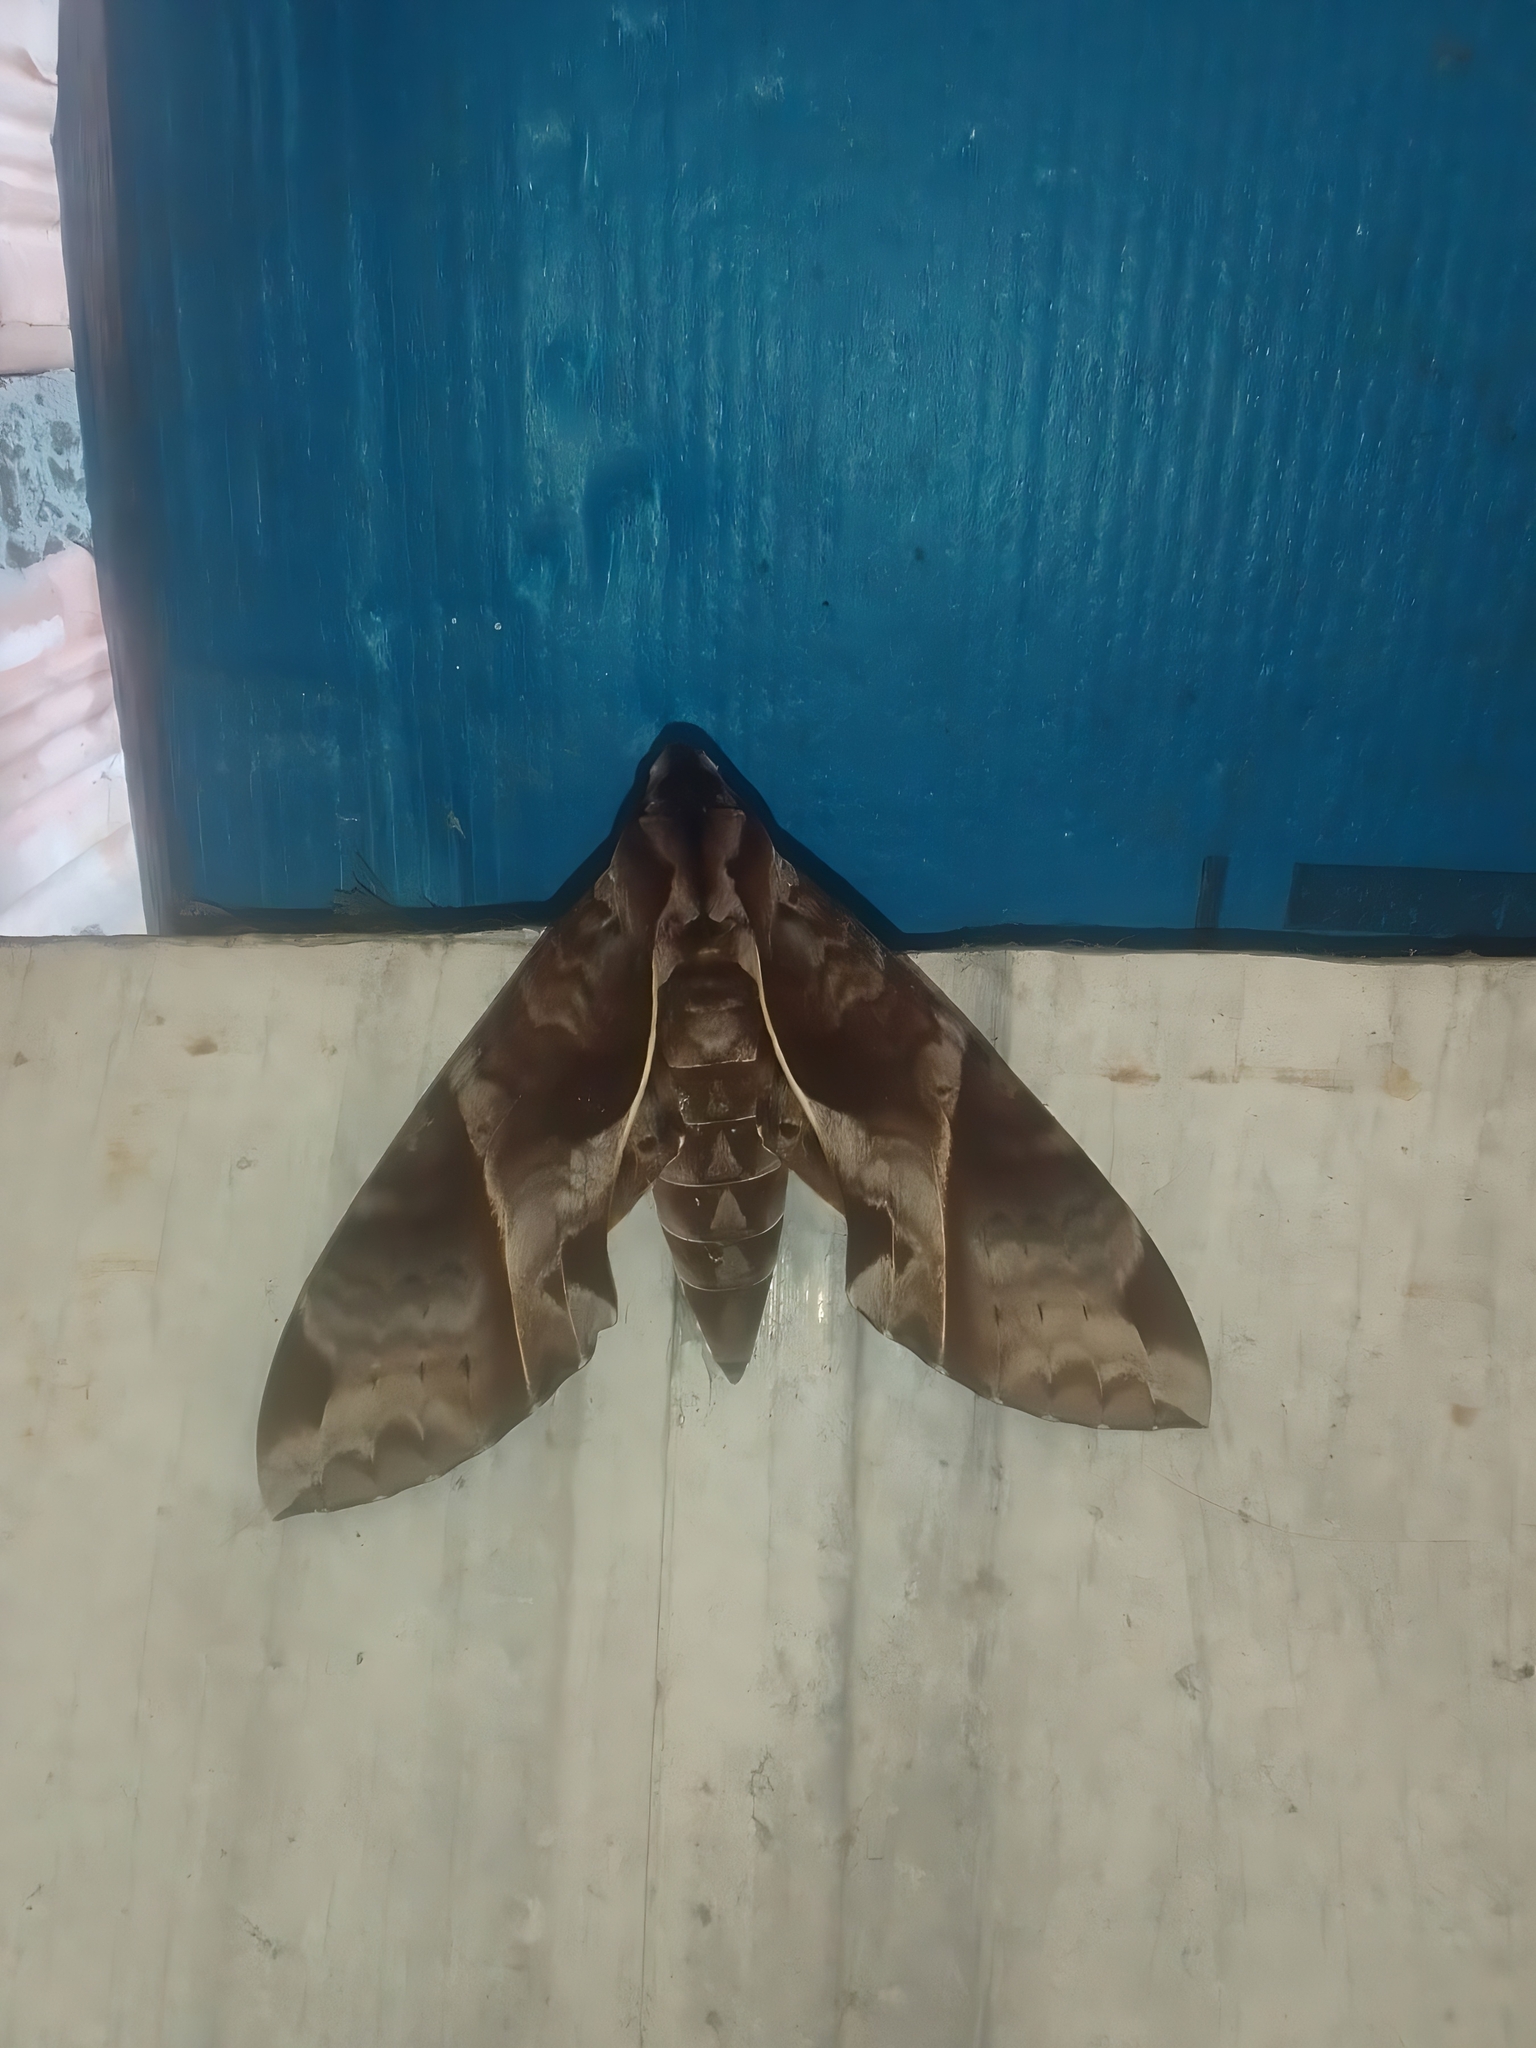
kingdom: Animalia
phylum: Arthropoda
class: Insecta
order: Lepidoptera
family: Sphingidae
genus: Eumorpha
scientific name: Eumorpha anchemolus
